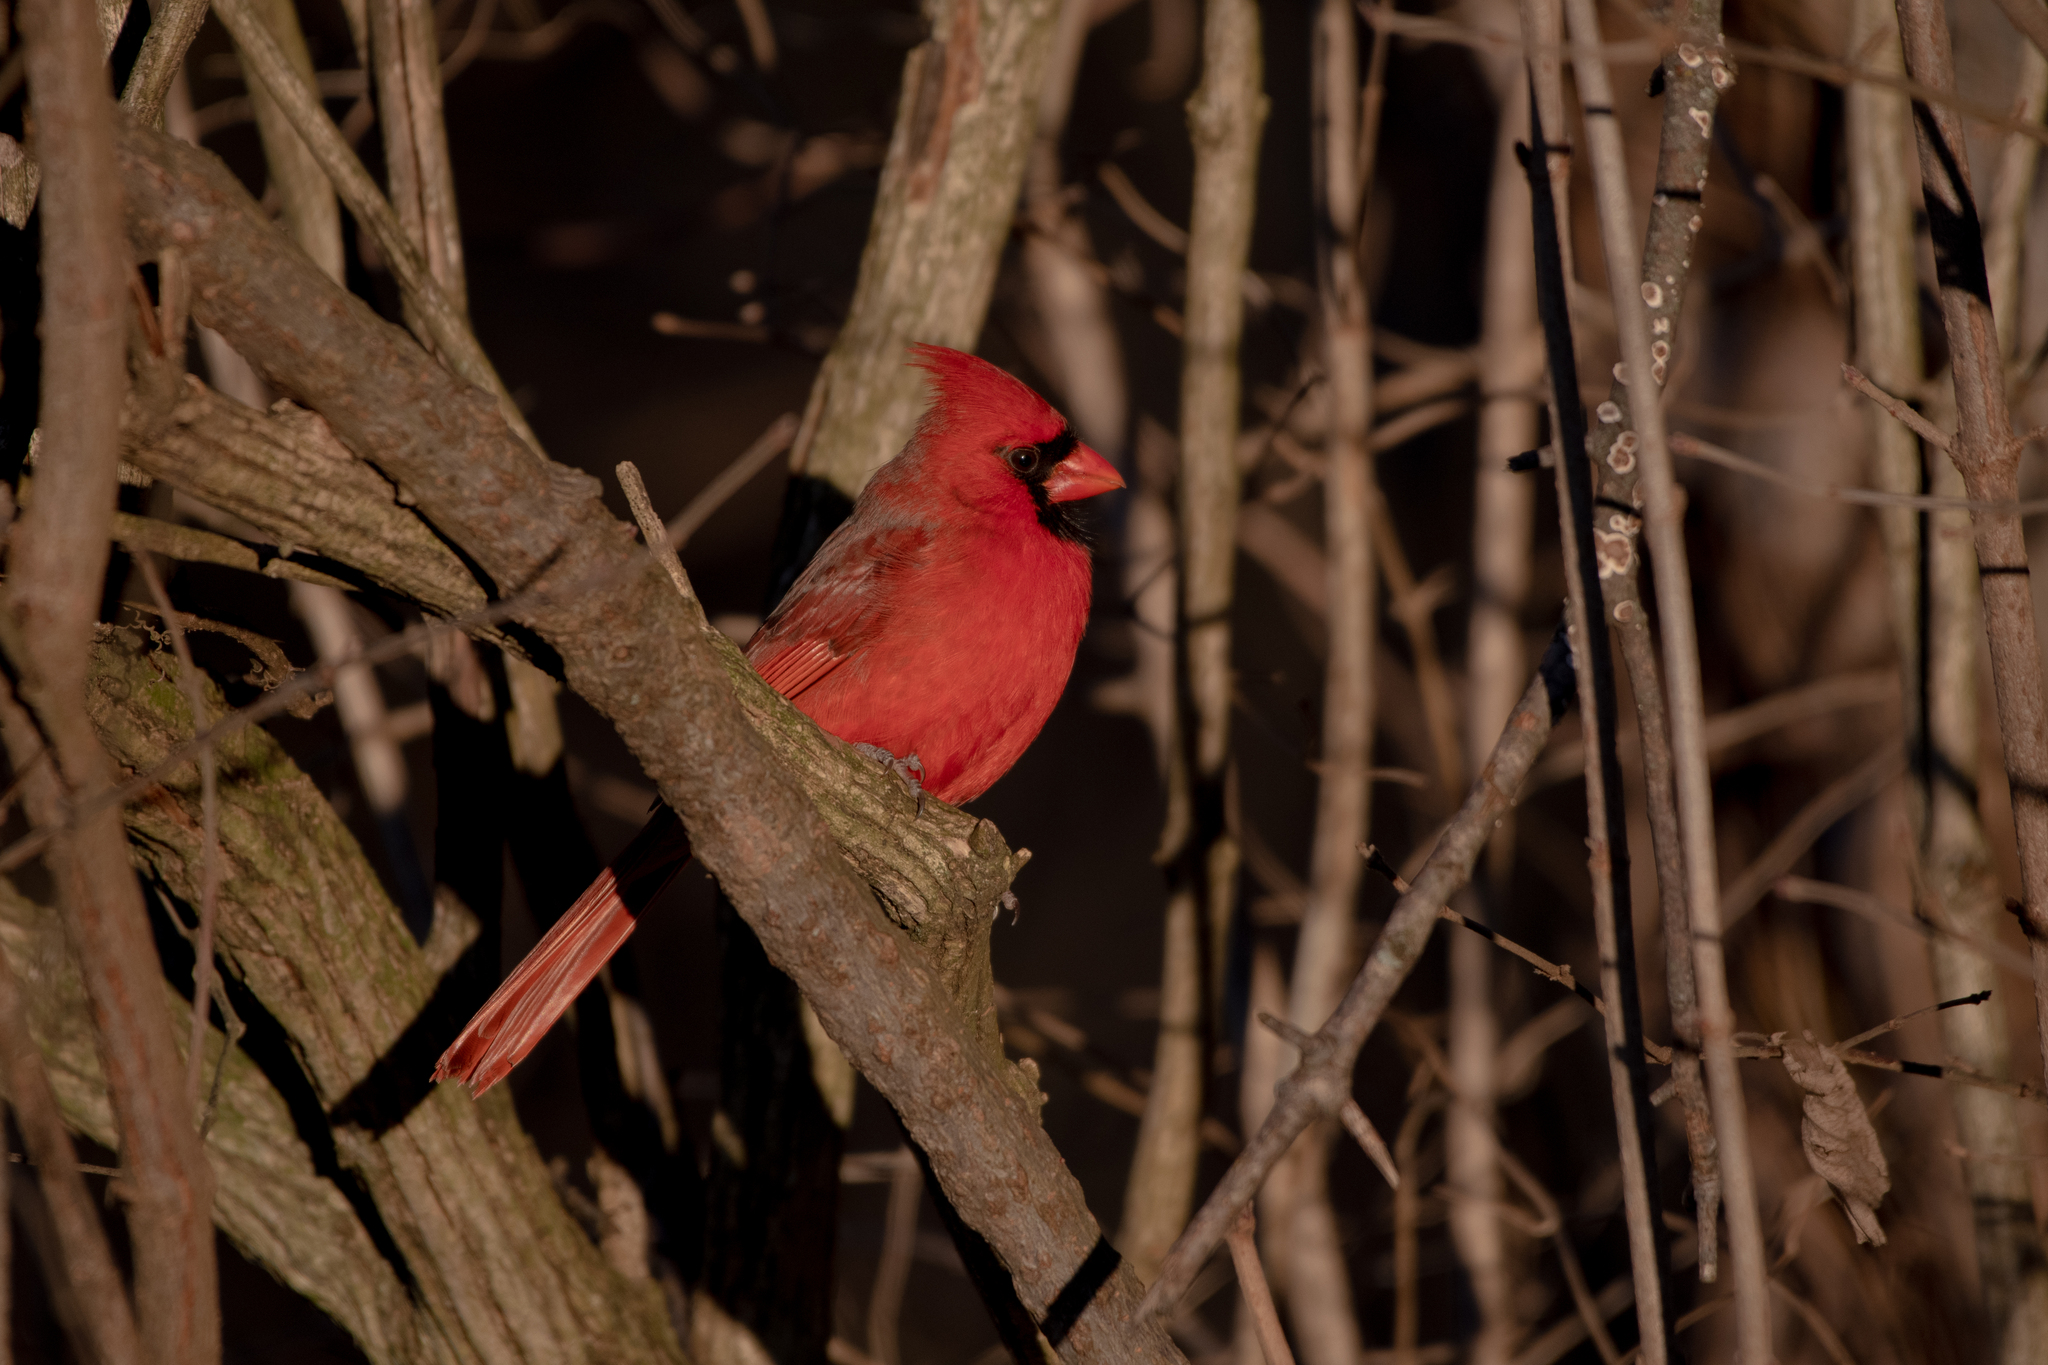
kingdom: Animalia
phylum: Chordata
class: Aves
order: Passeriformes
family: Cardinalidae
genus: Cardinalis
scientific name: Cardinalis cardinalis
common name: Northern cardinal
